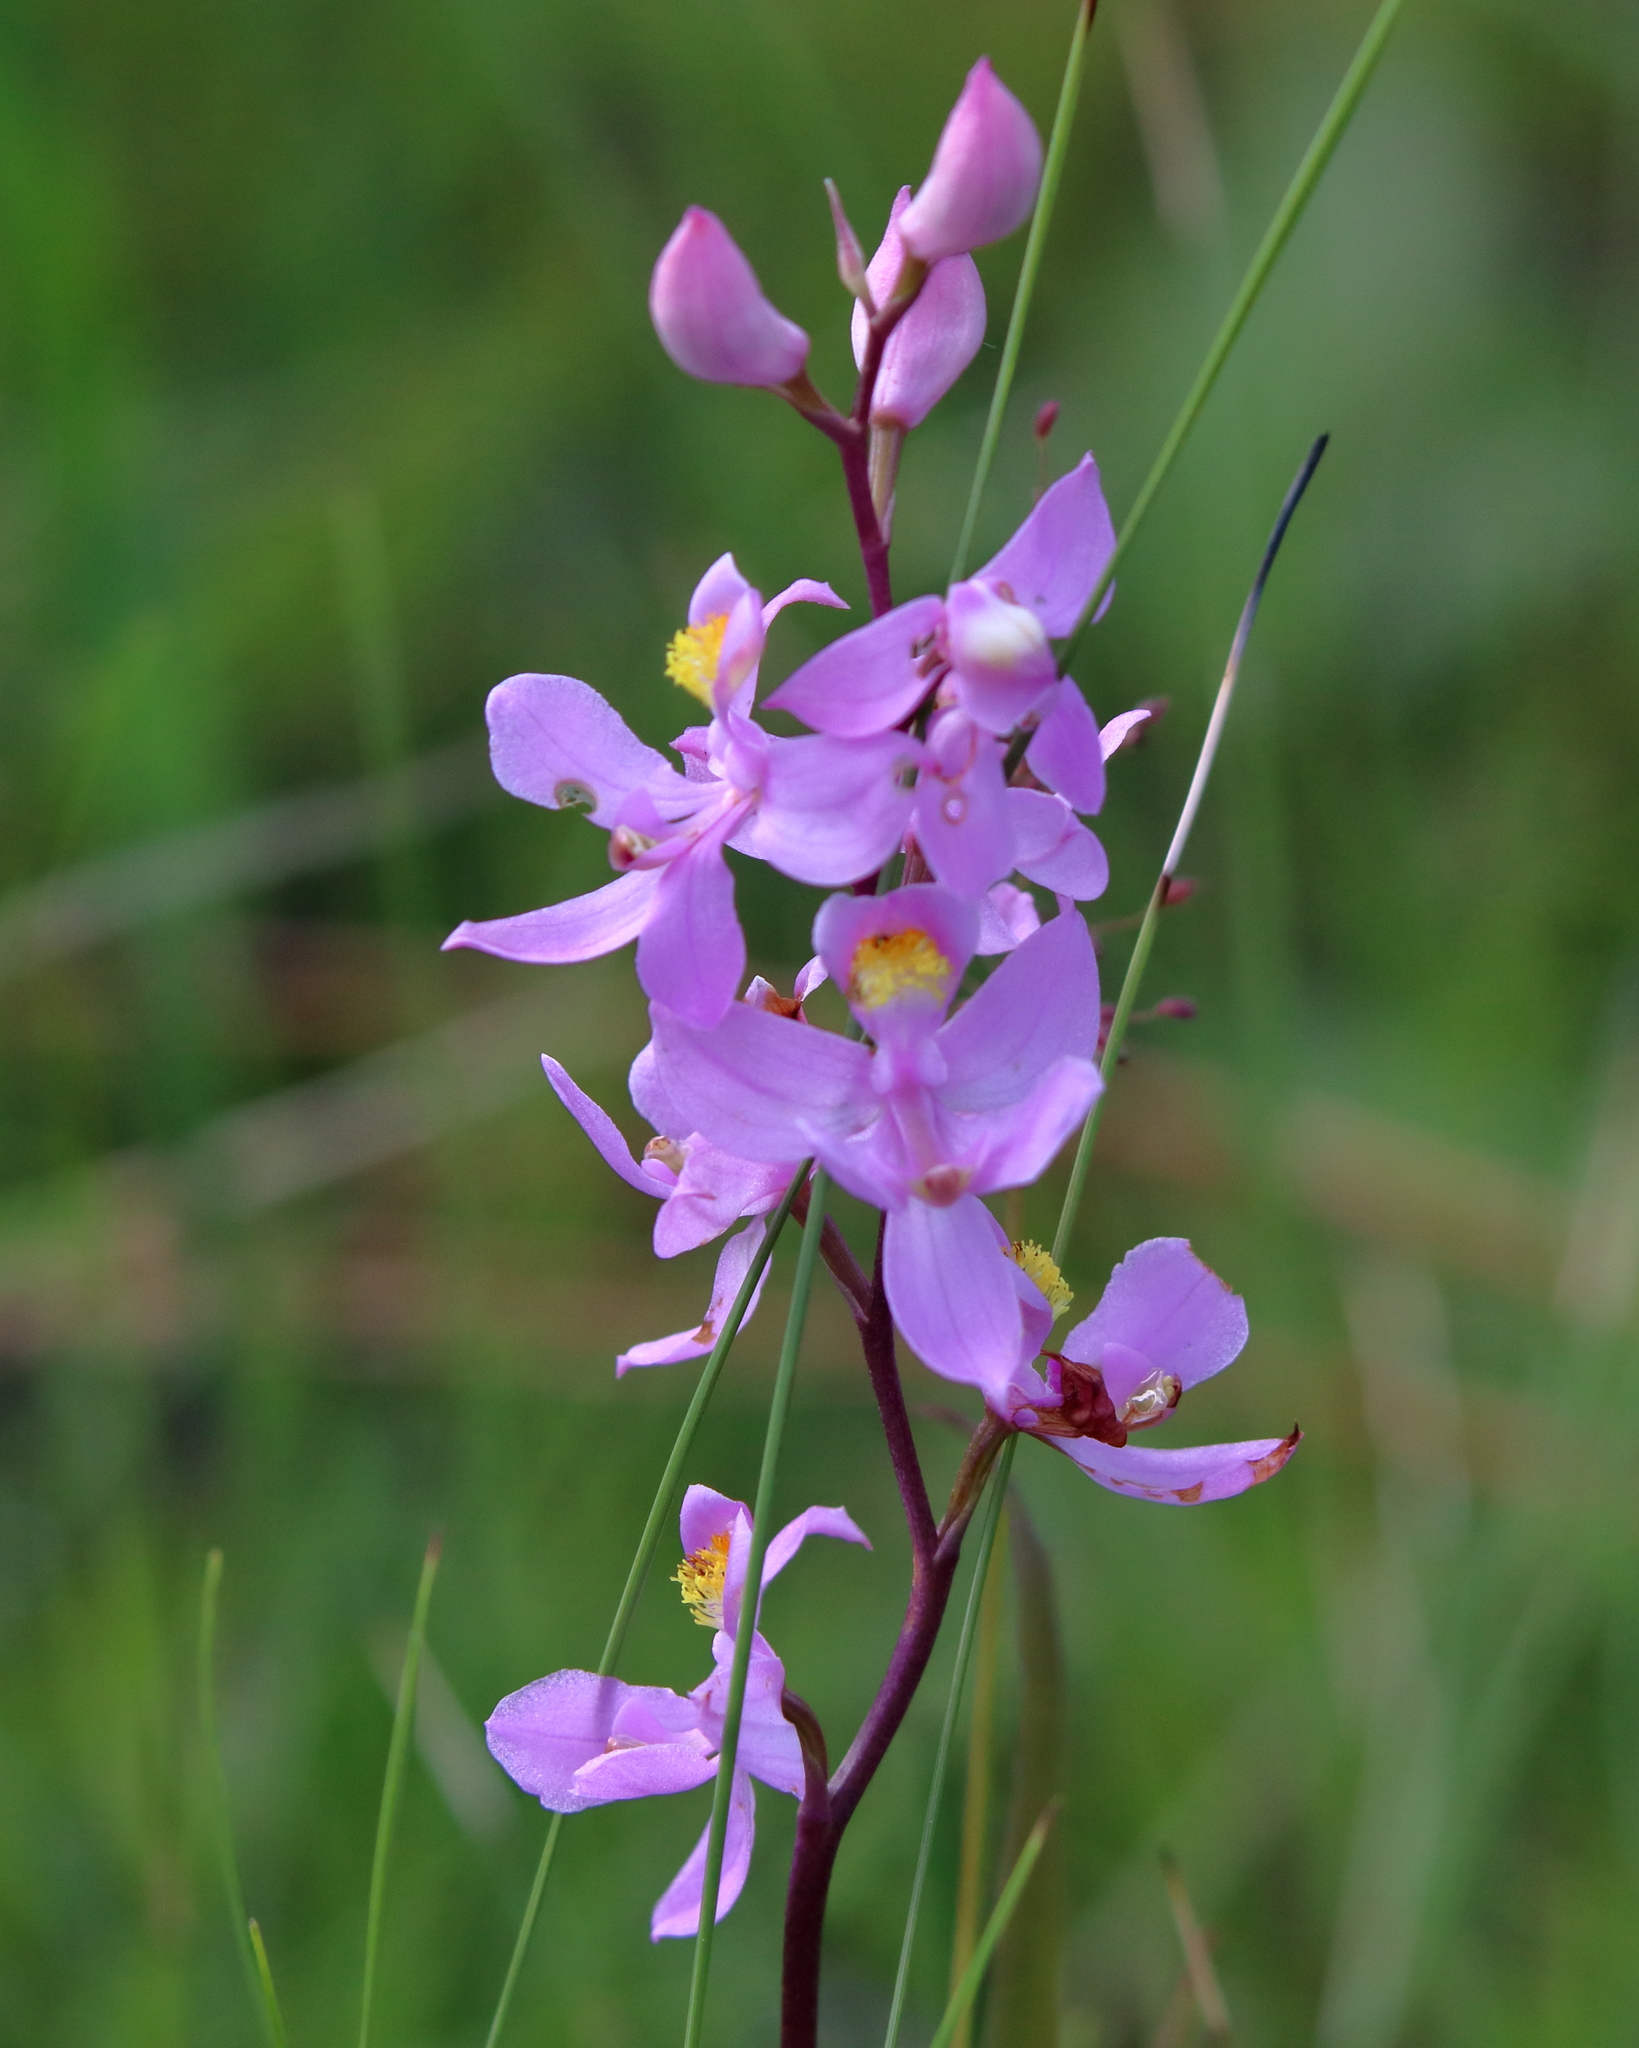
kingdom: Plantae
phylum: Tracheophyta
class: Liliopsida
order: Asparagales
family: Orchidaceae
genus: Calopogon
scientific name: Calopogon multiflorus
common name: Many-flowered grass-pink orchid
